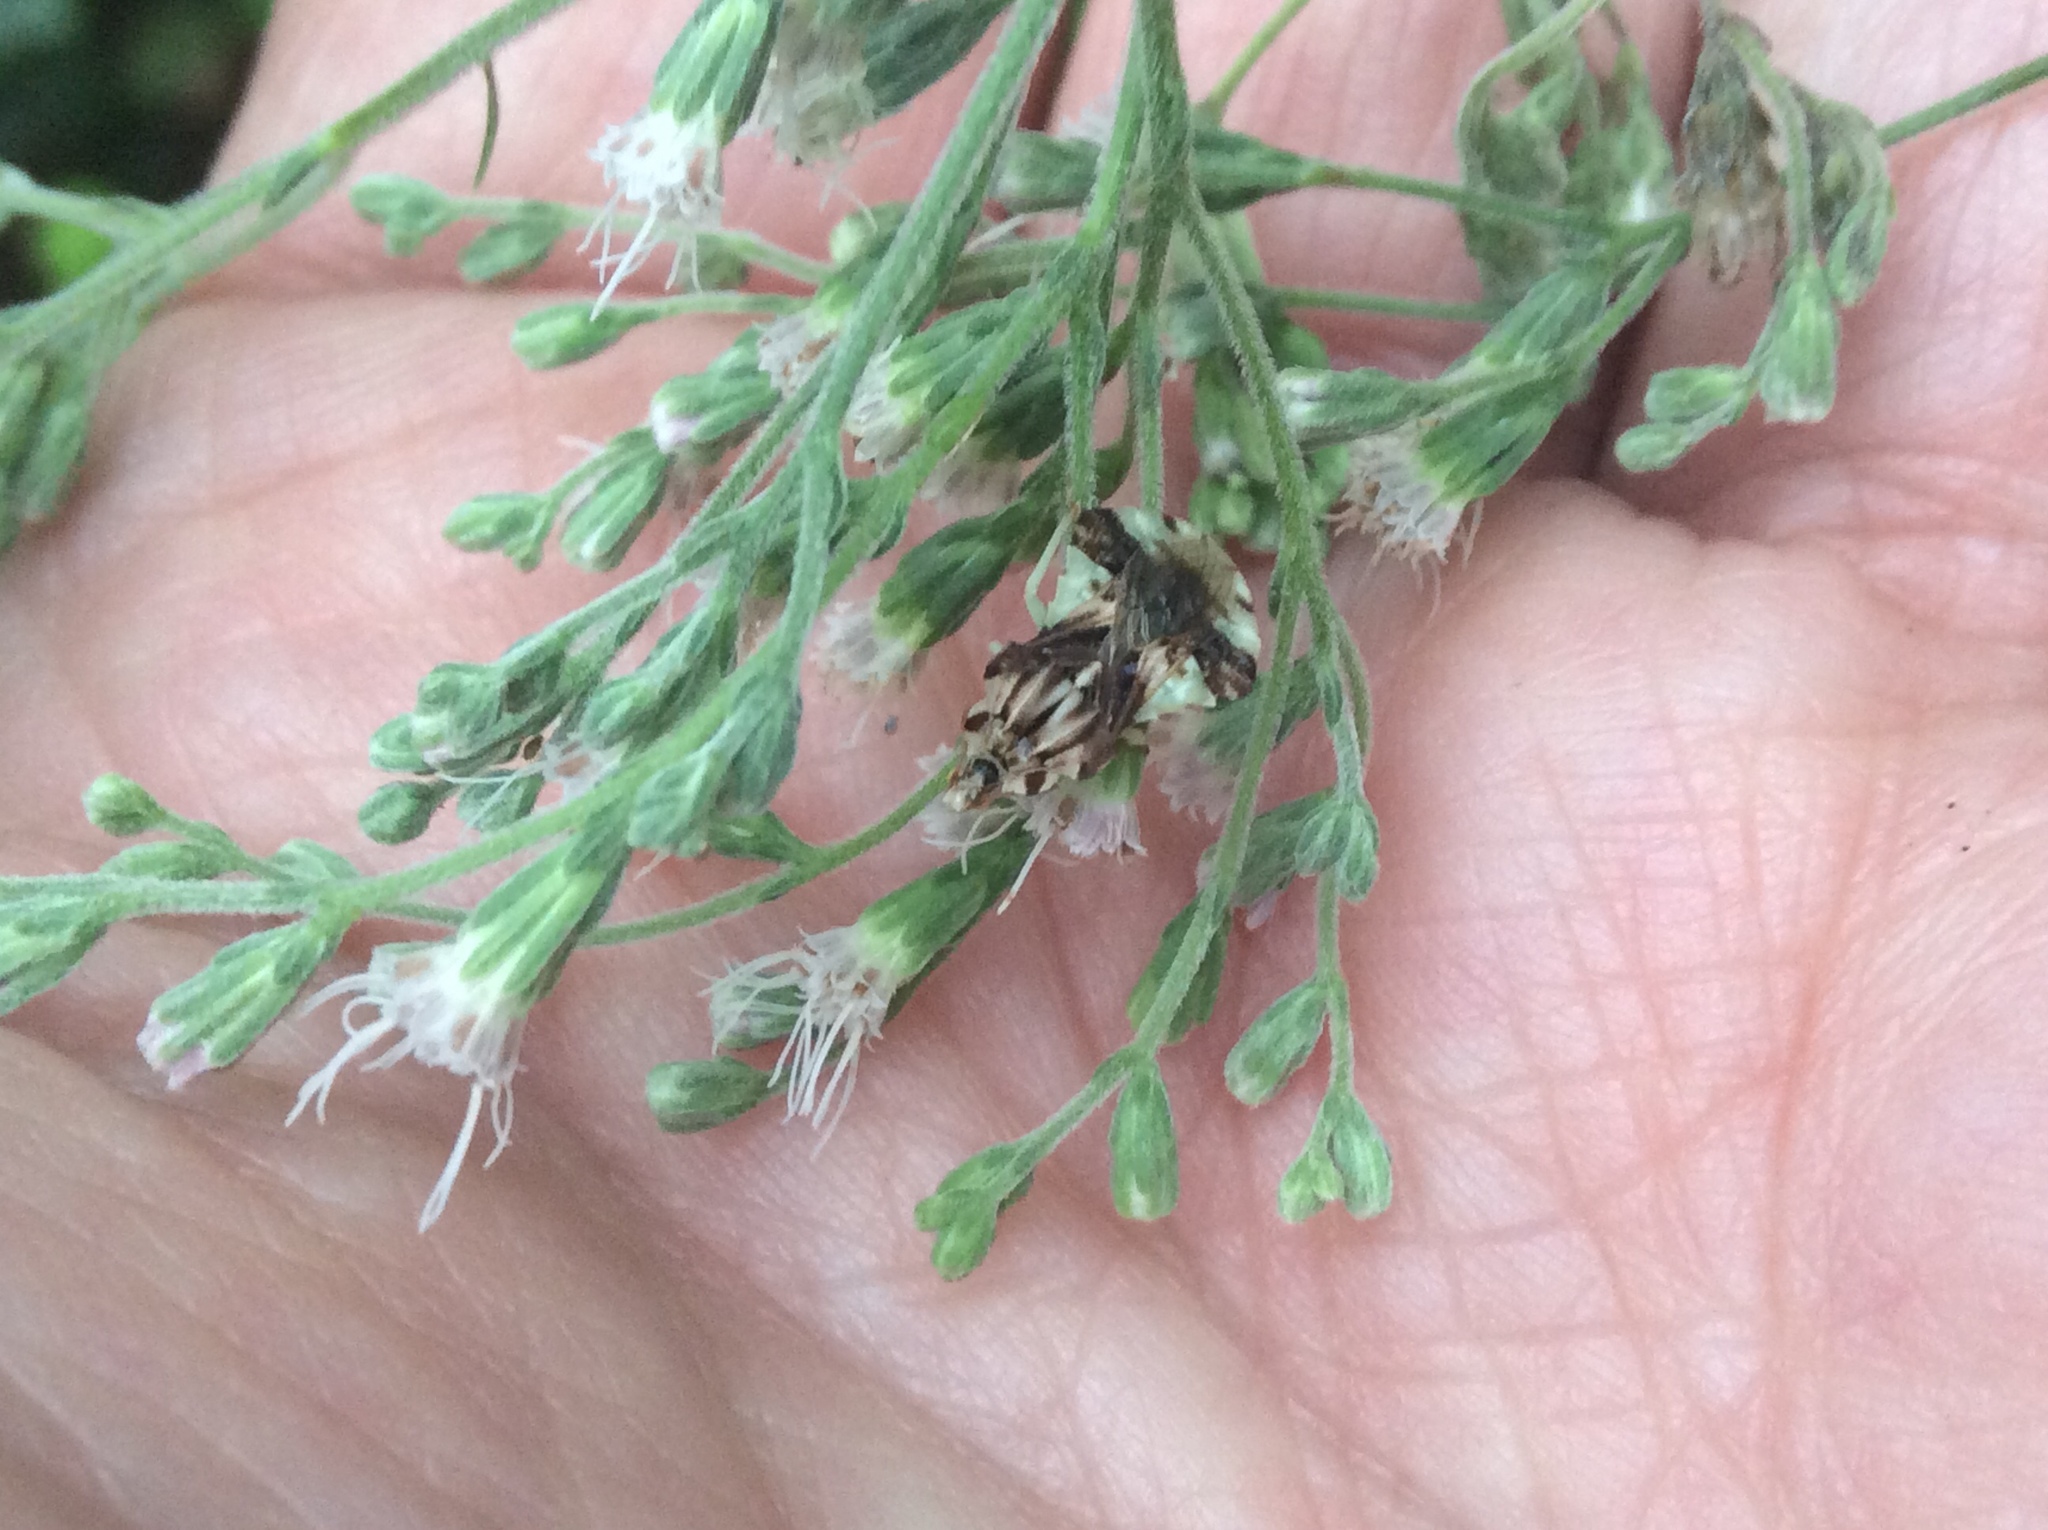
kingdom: Animalia
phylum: Arthropoda
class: Insecta
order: Hemiptera
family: Reduviidae
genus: Phymata
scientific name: Phymata fasciata
